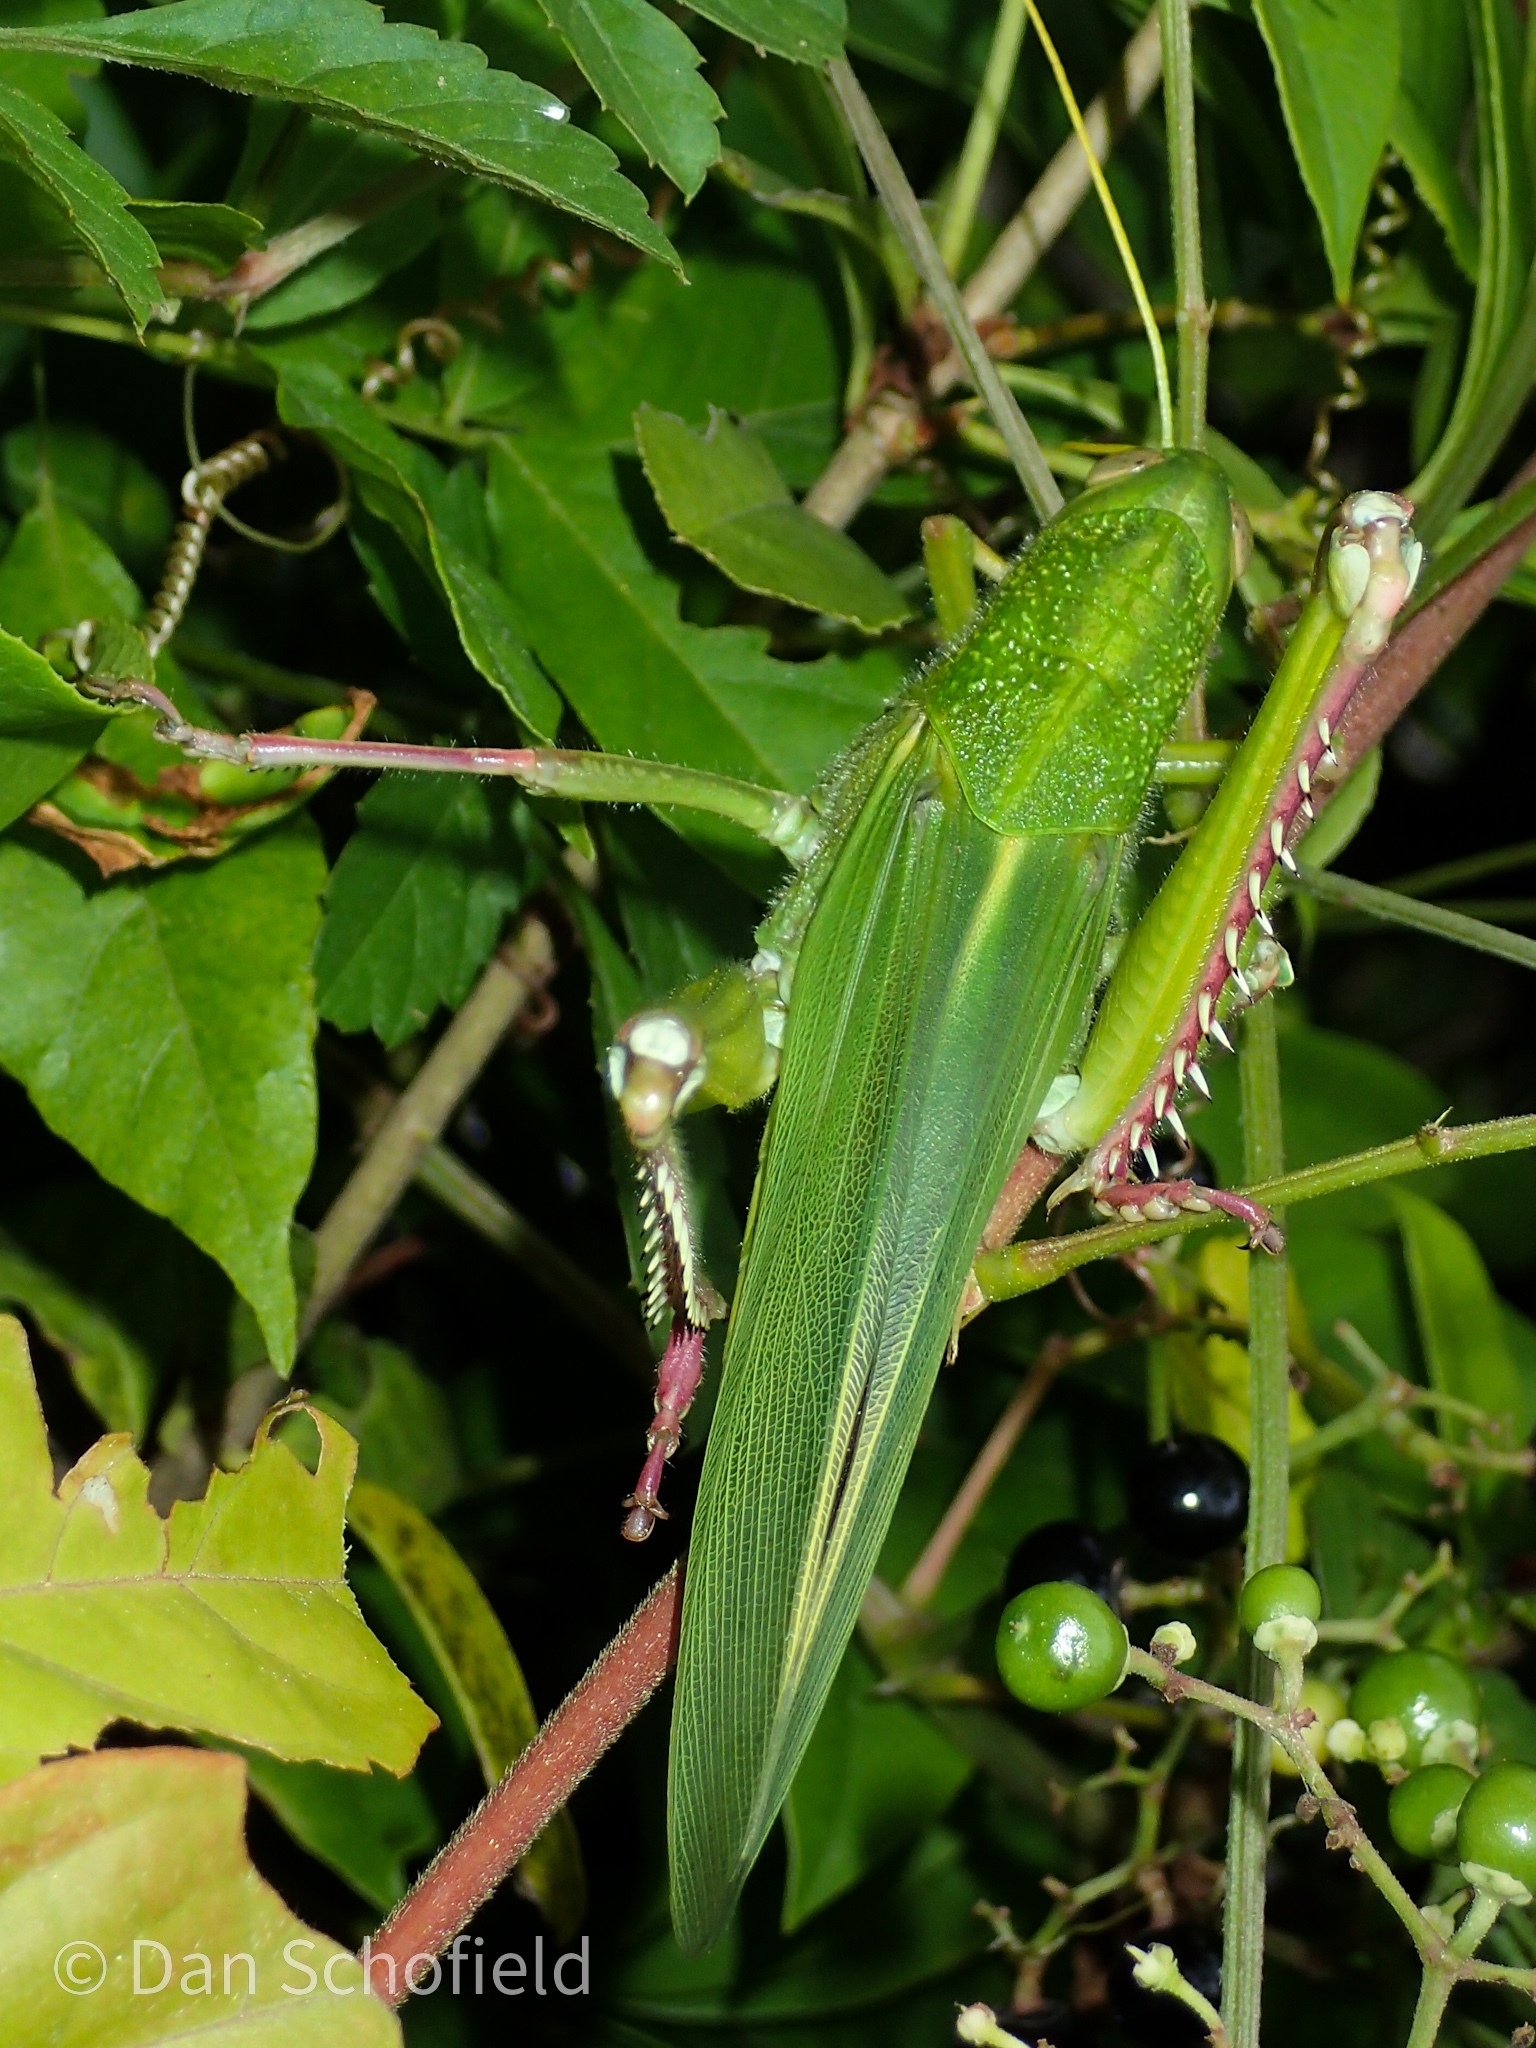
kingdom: Animalia
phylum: Arthropoda
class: Insecta
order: Orthoptera
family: Acrididae
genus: Chondracris
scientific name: Chondracris rosea
